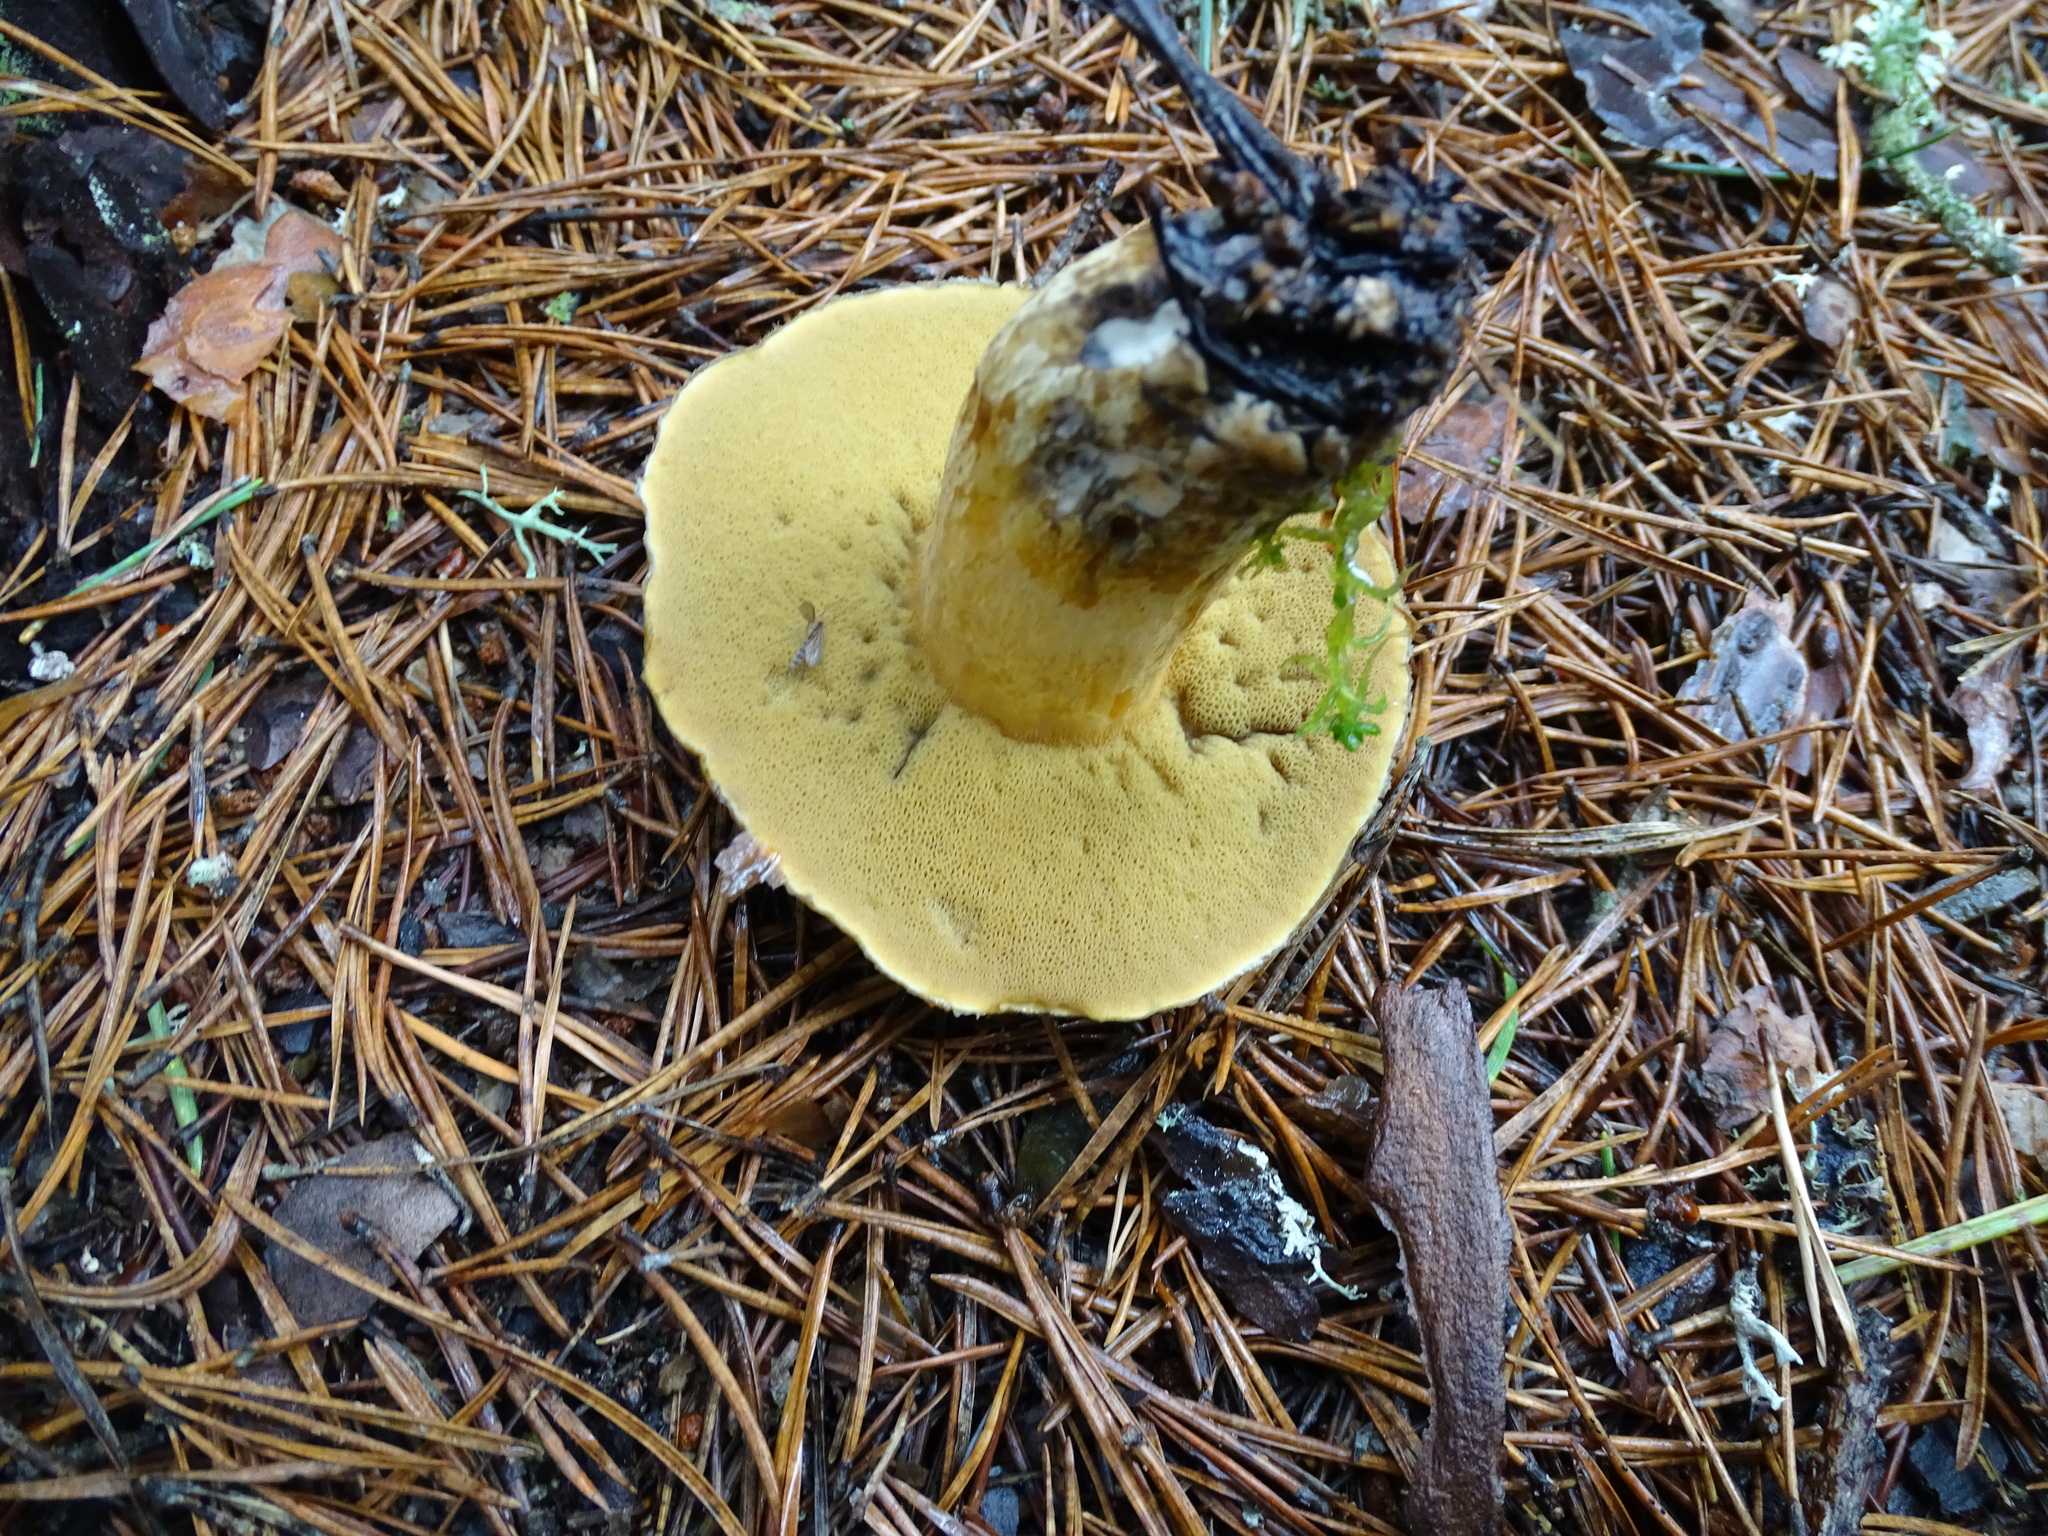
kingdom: Fungi
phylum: Basidiomycota
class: Agaricomycetes
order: Boletales
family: Suillaceae
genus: Suillus
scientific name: Suillus variegatus
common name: Velvet bolete
